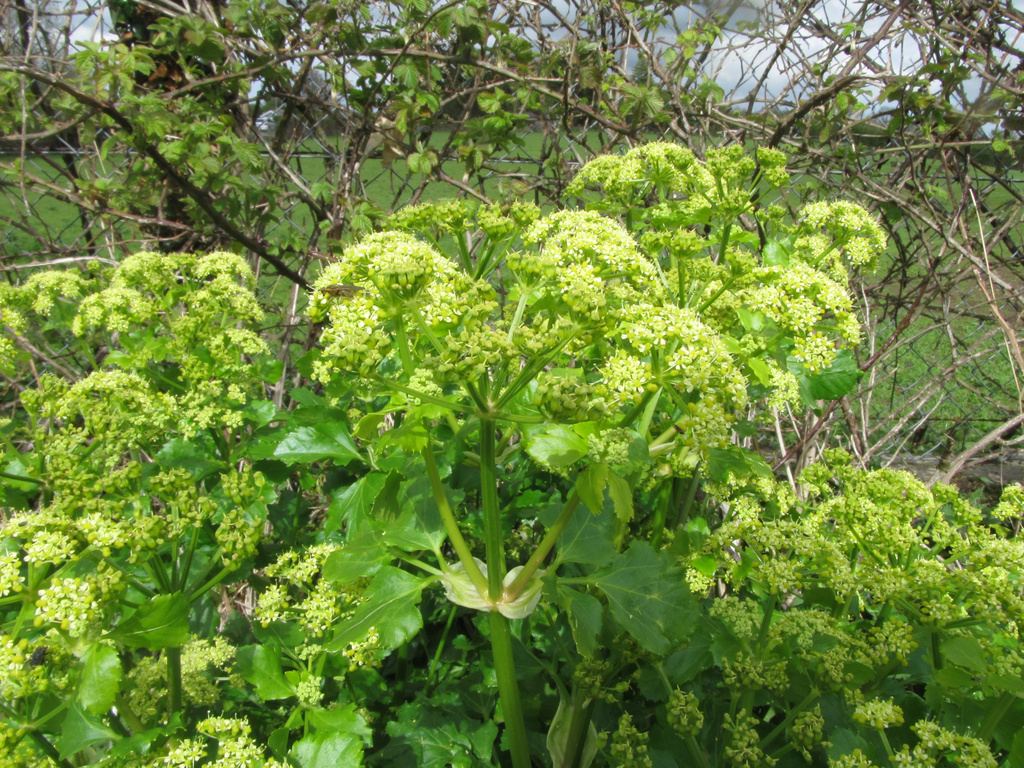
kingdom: Plantae
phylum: Tracheophyta
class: Magnoliopsida
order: Apiales
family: Apiaceae
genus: Smyrnium
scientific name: Smyrnium olusatrum
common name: Alexanders
